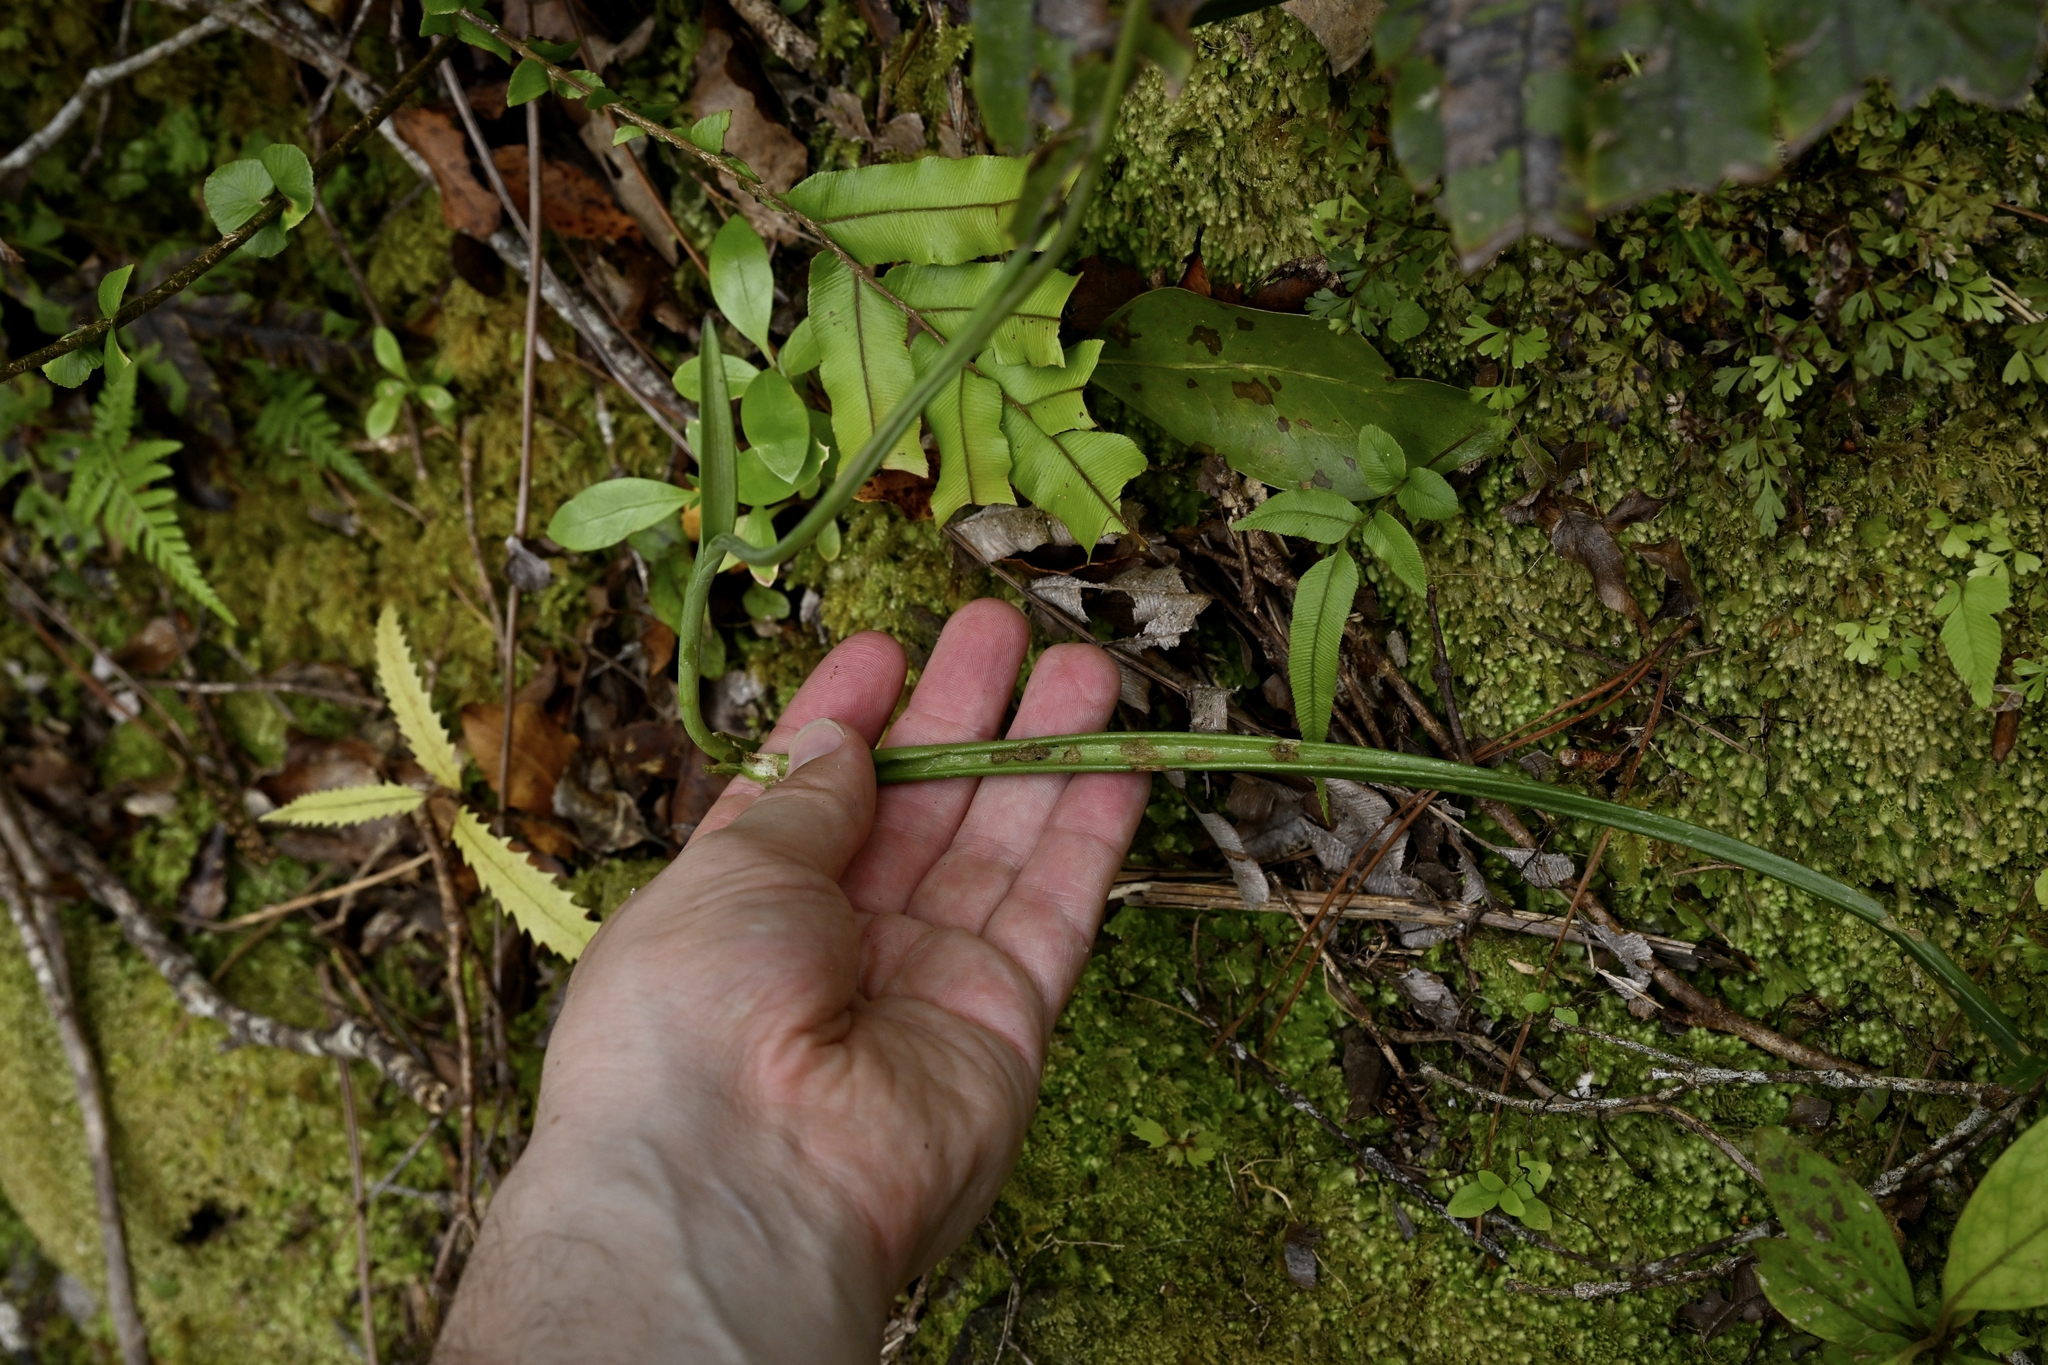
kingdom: Plantae
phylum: Tracheophyta
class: Liliopsida
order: Asparagales
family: Orchidaceae
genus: Thelymitra
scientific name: Thelymitra formosa
